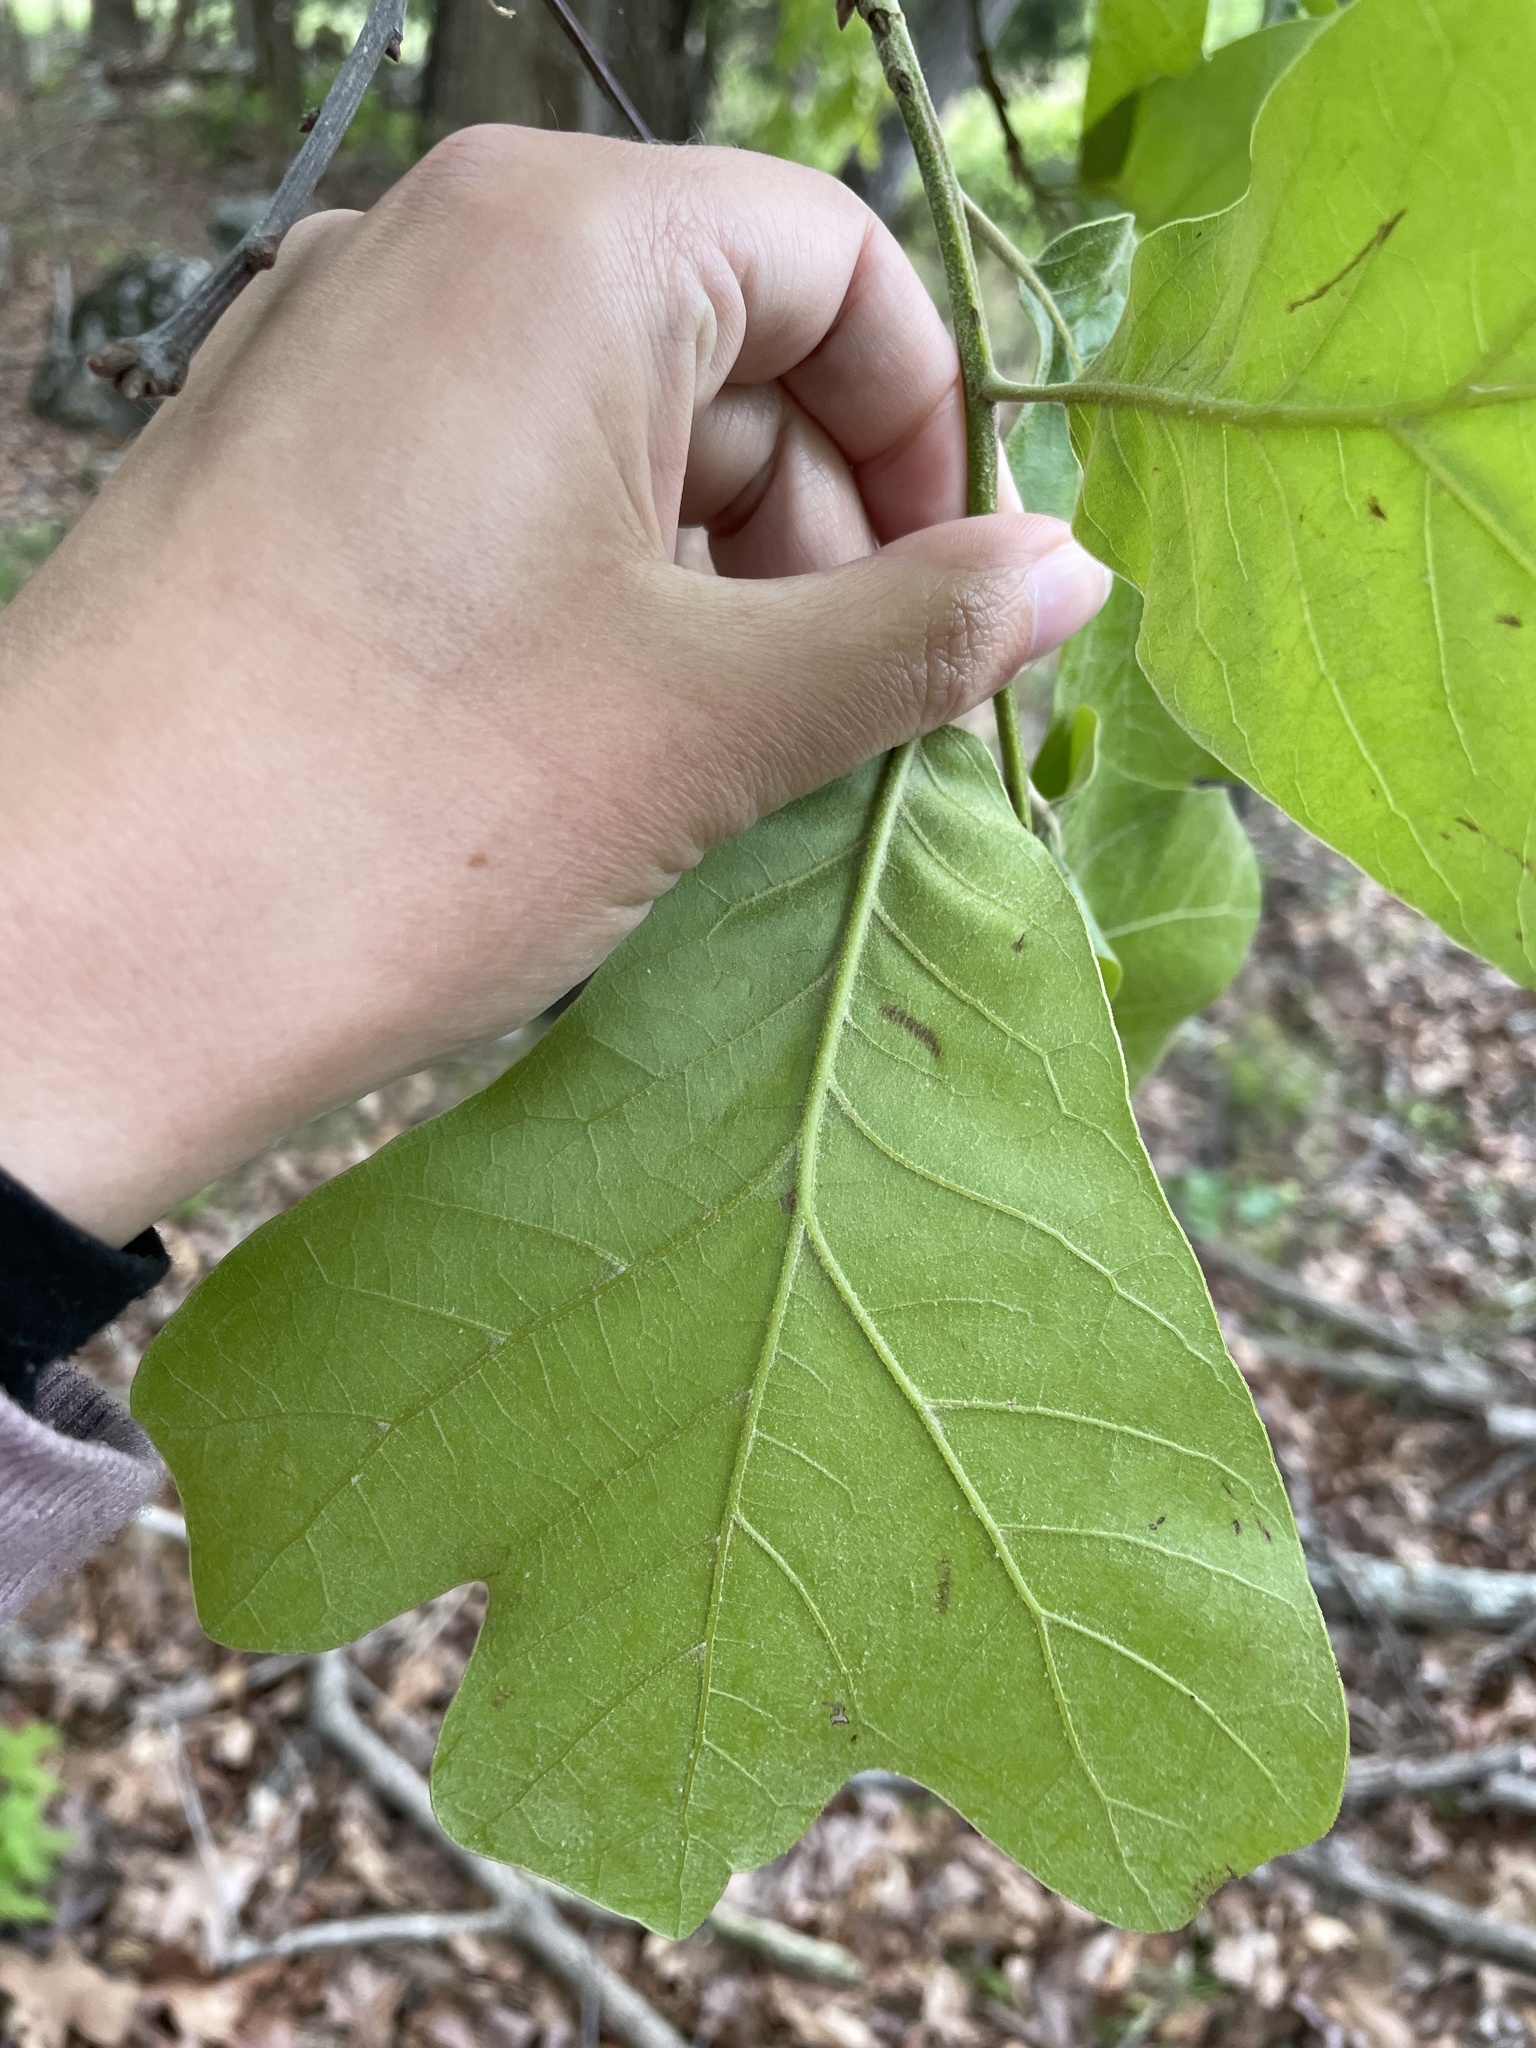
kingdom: Plantae
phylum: Tracheophyta
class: Magnoliopsida
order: Fagales
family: Fagaceae
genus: Quercus
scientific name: Quercus marilandica
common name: Blackjack oak
